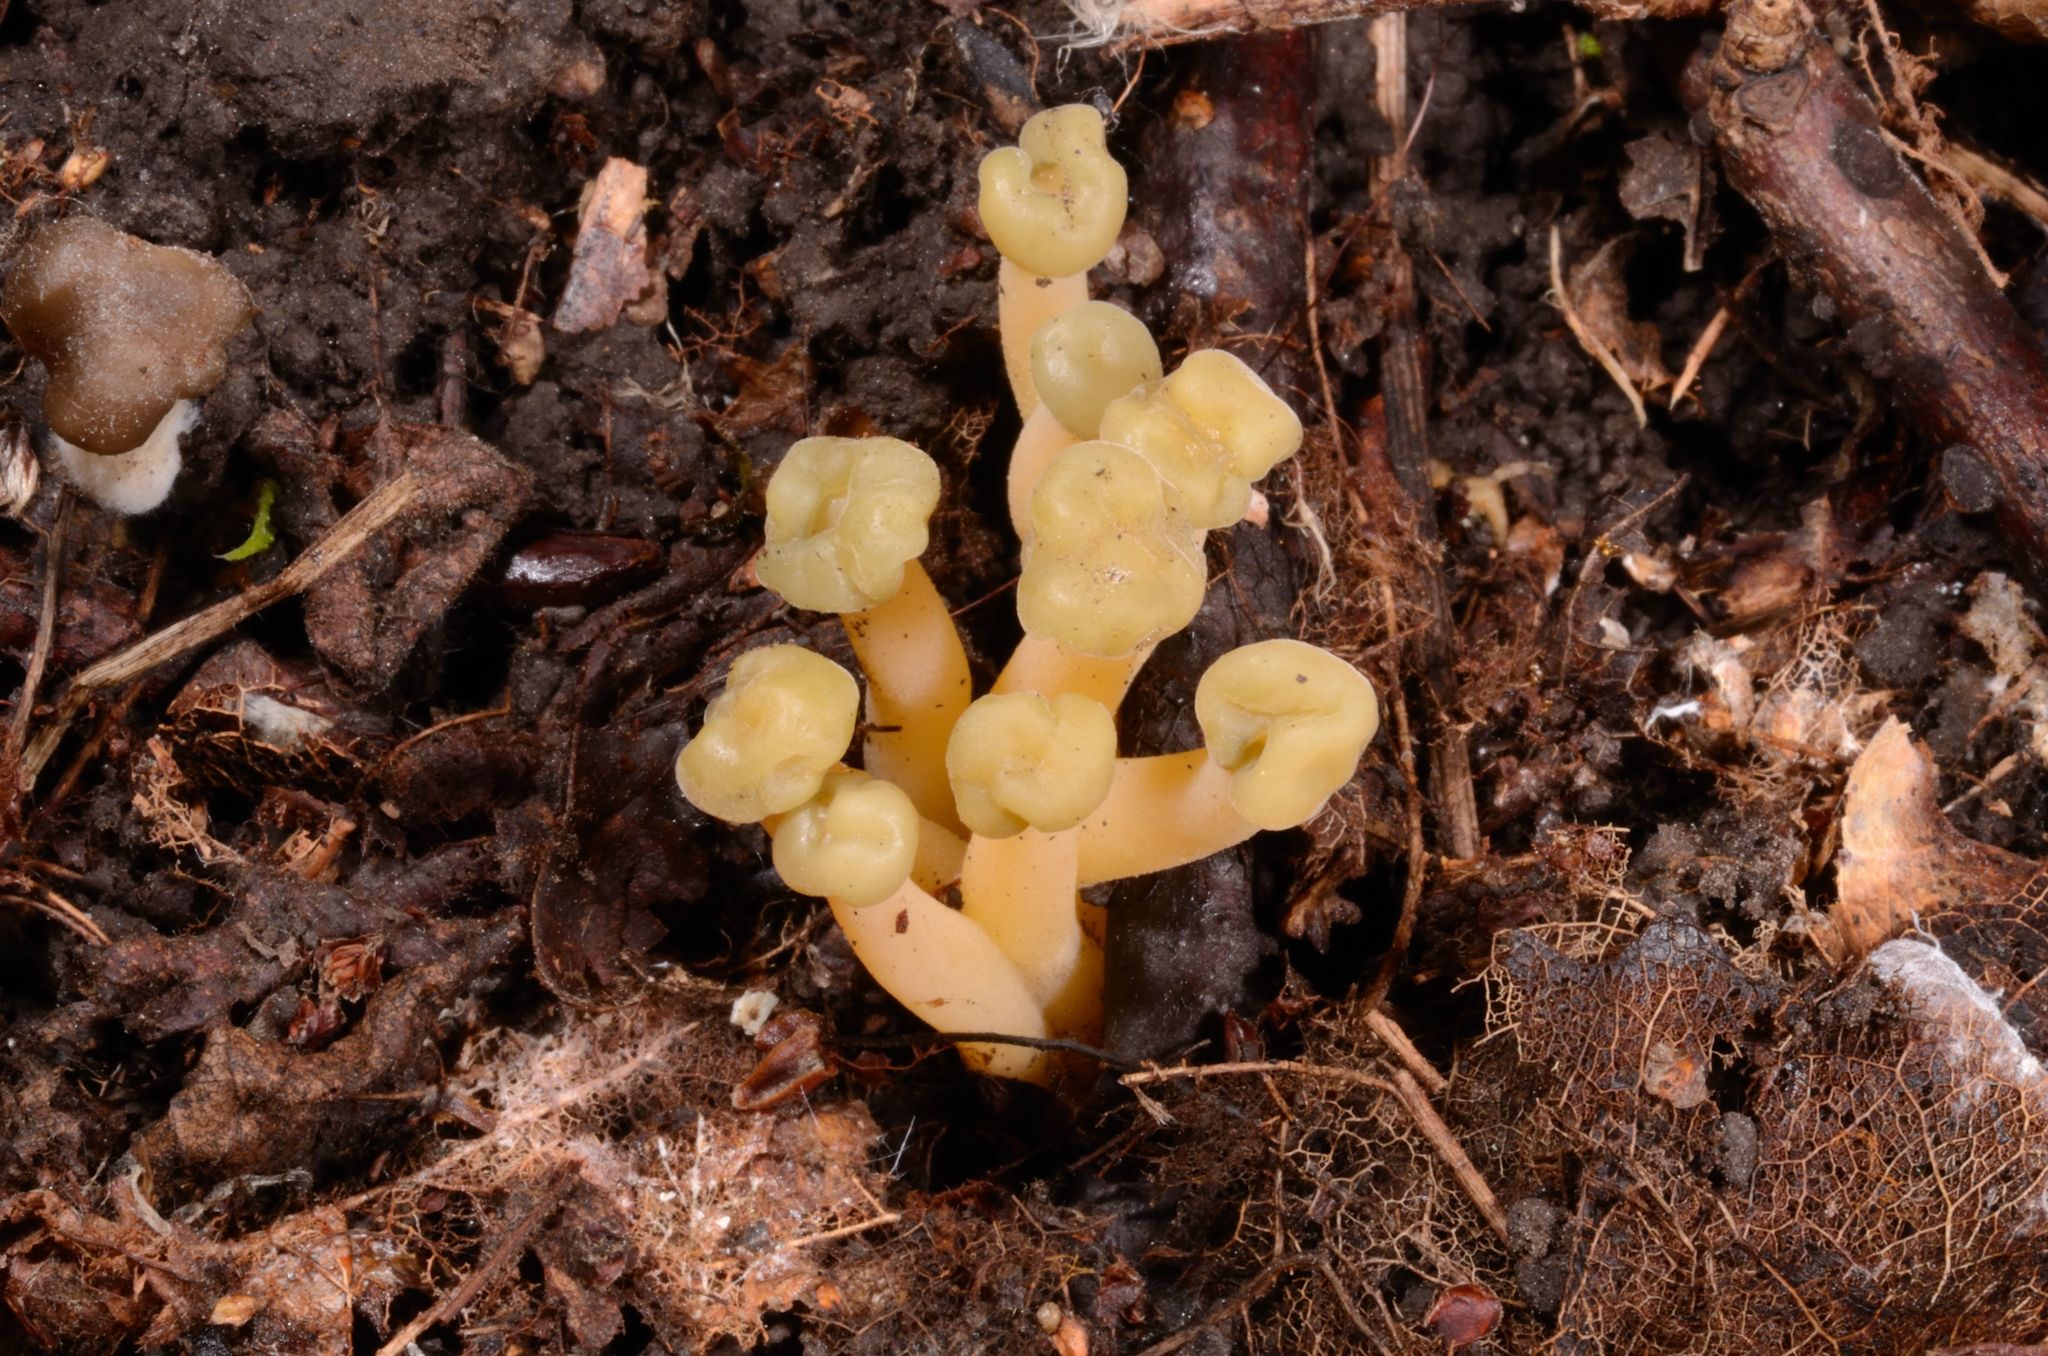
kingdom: Fungi
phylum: Ascomycota
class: Leotiomycetes
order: Leotiales
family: Leotiaceae
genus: Leotia
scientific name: Leotia lubrica
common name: Jellybaby
